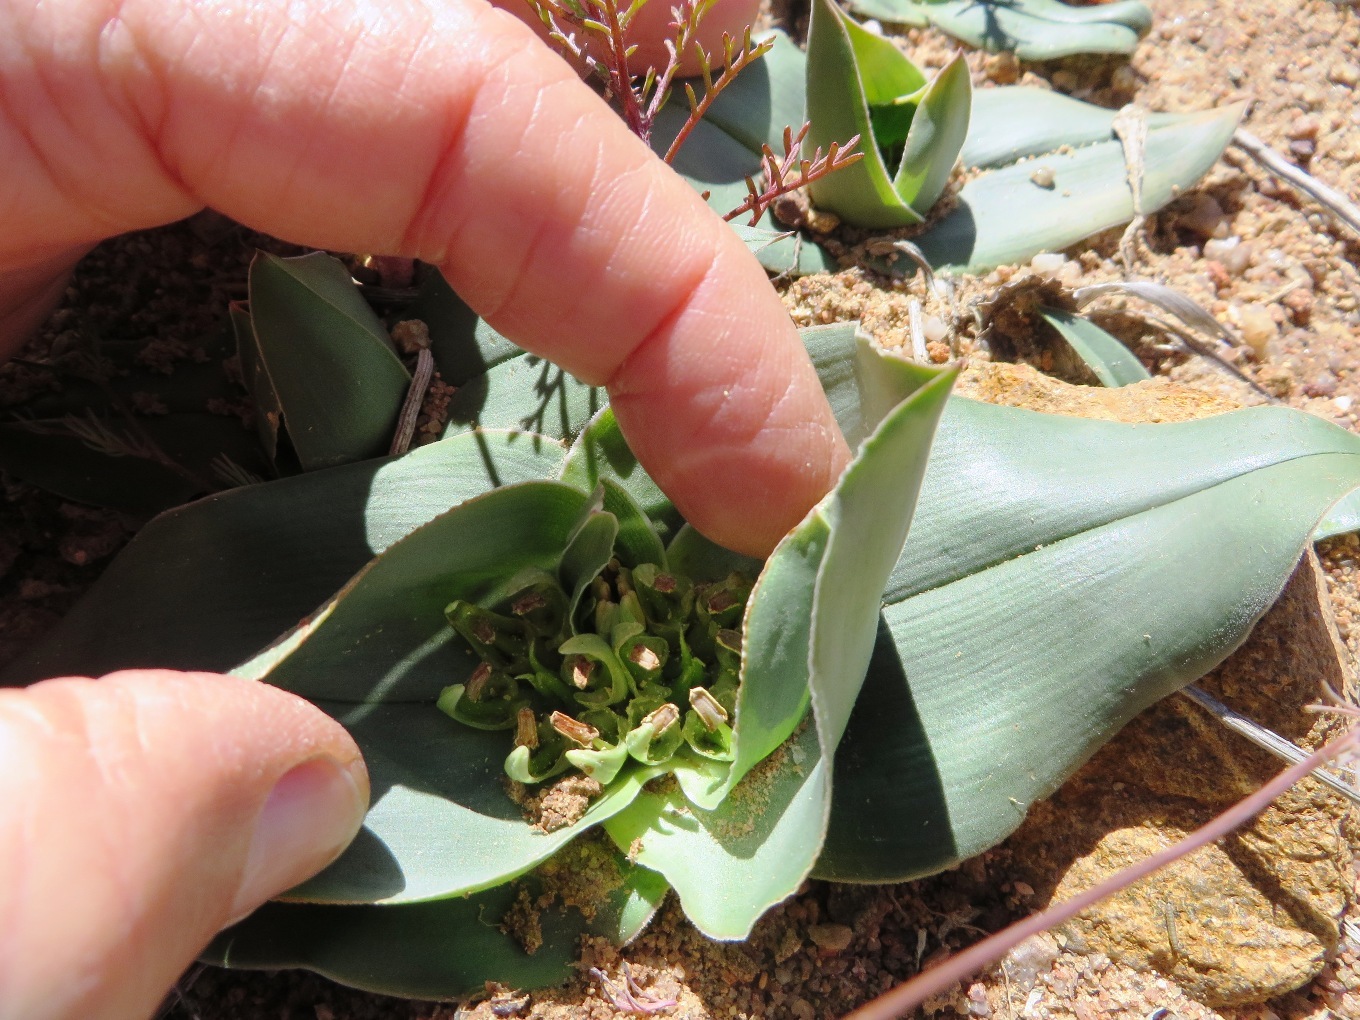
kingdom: Plantae
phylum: Tracheophyta
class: Liliopsida
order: Liliales
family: Colchicaceae
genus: Colchicum
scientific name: Colchicum scabromarginatum
